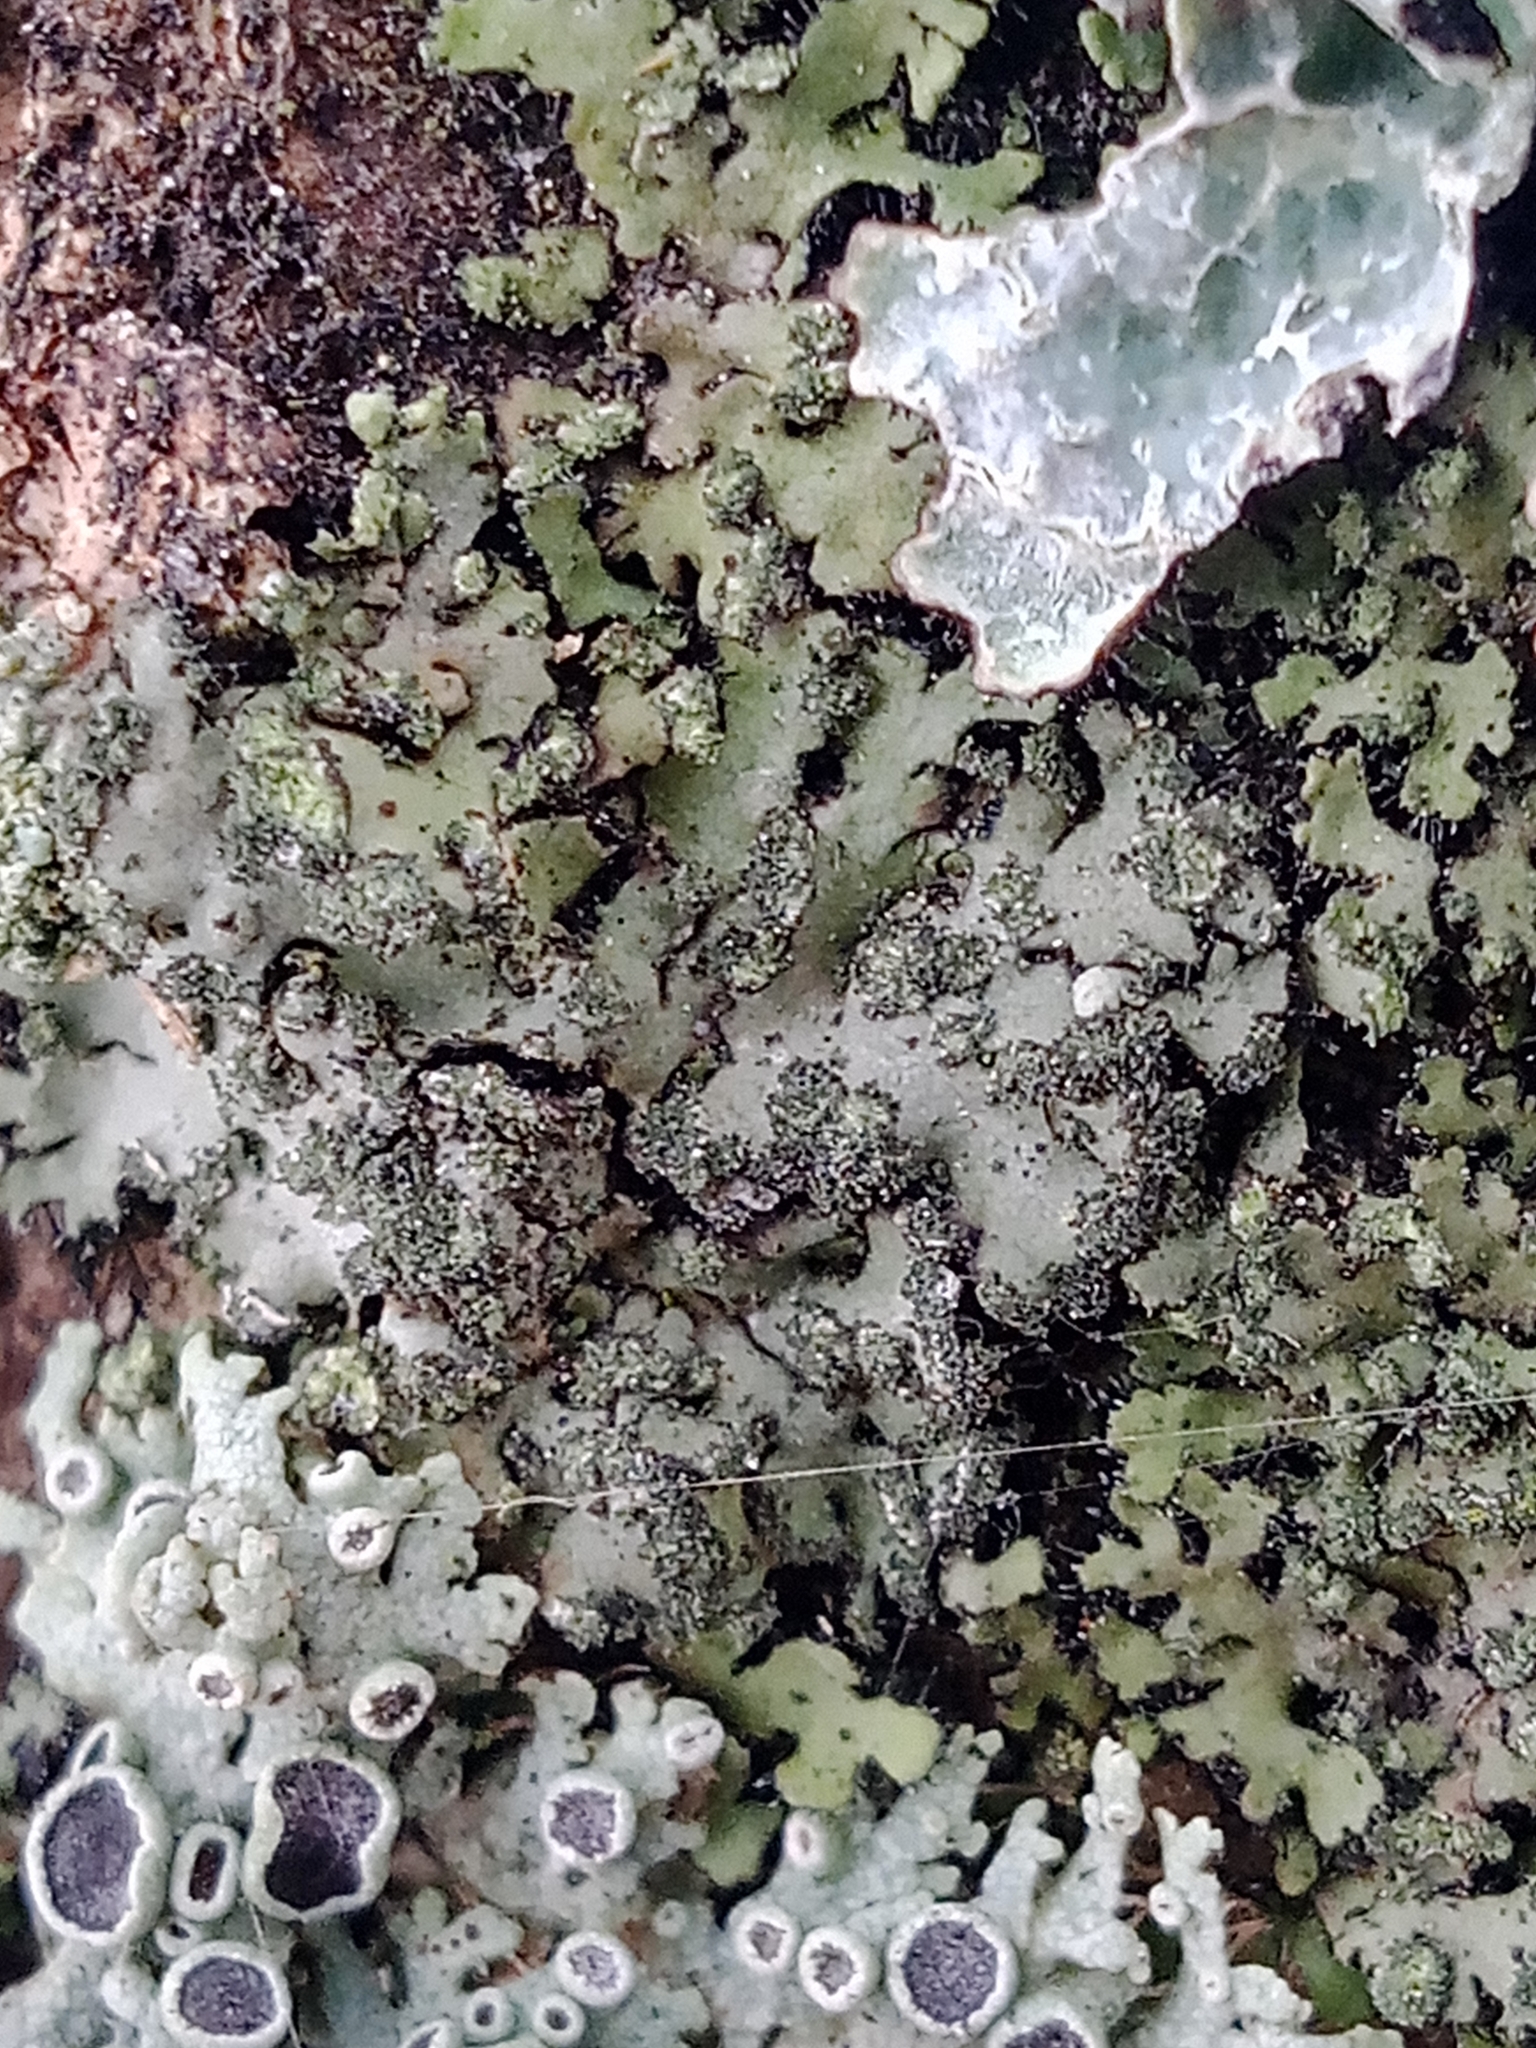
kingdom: Fungi
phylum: Ascomycota
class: Lecanoromycetes
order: Caliciales
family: Physciaceae
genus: Phaeophyscia
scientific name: Phaeophyscia orbicularis
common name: Mealy shadow lichen
